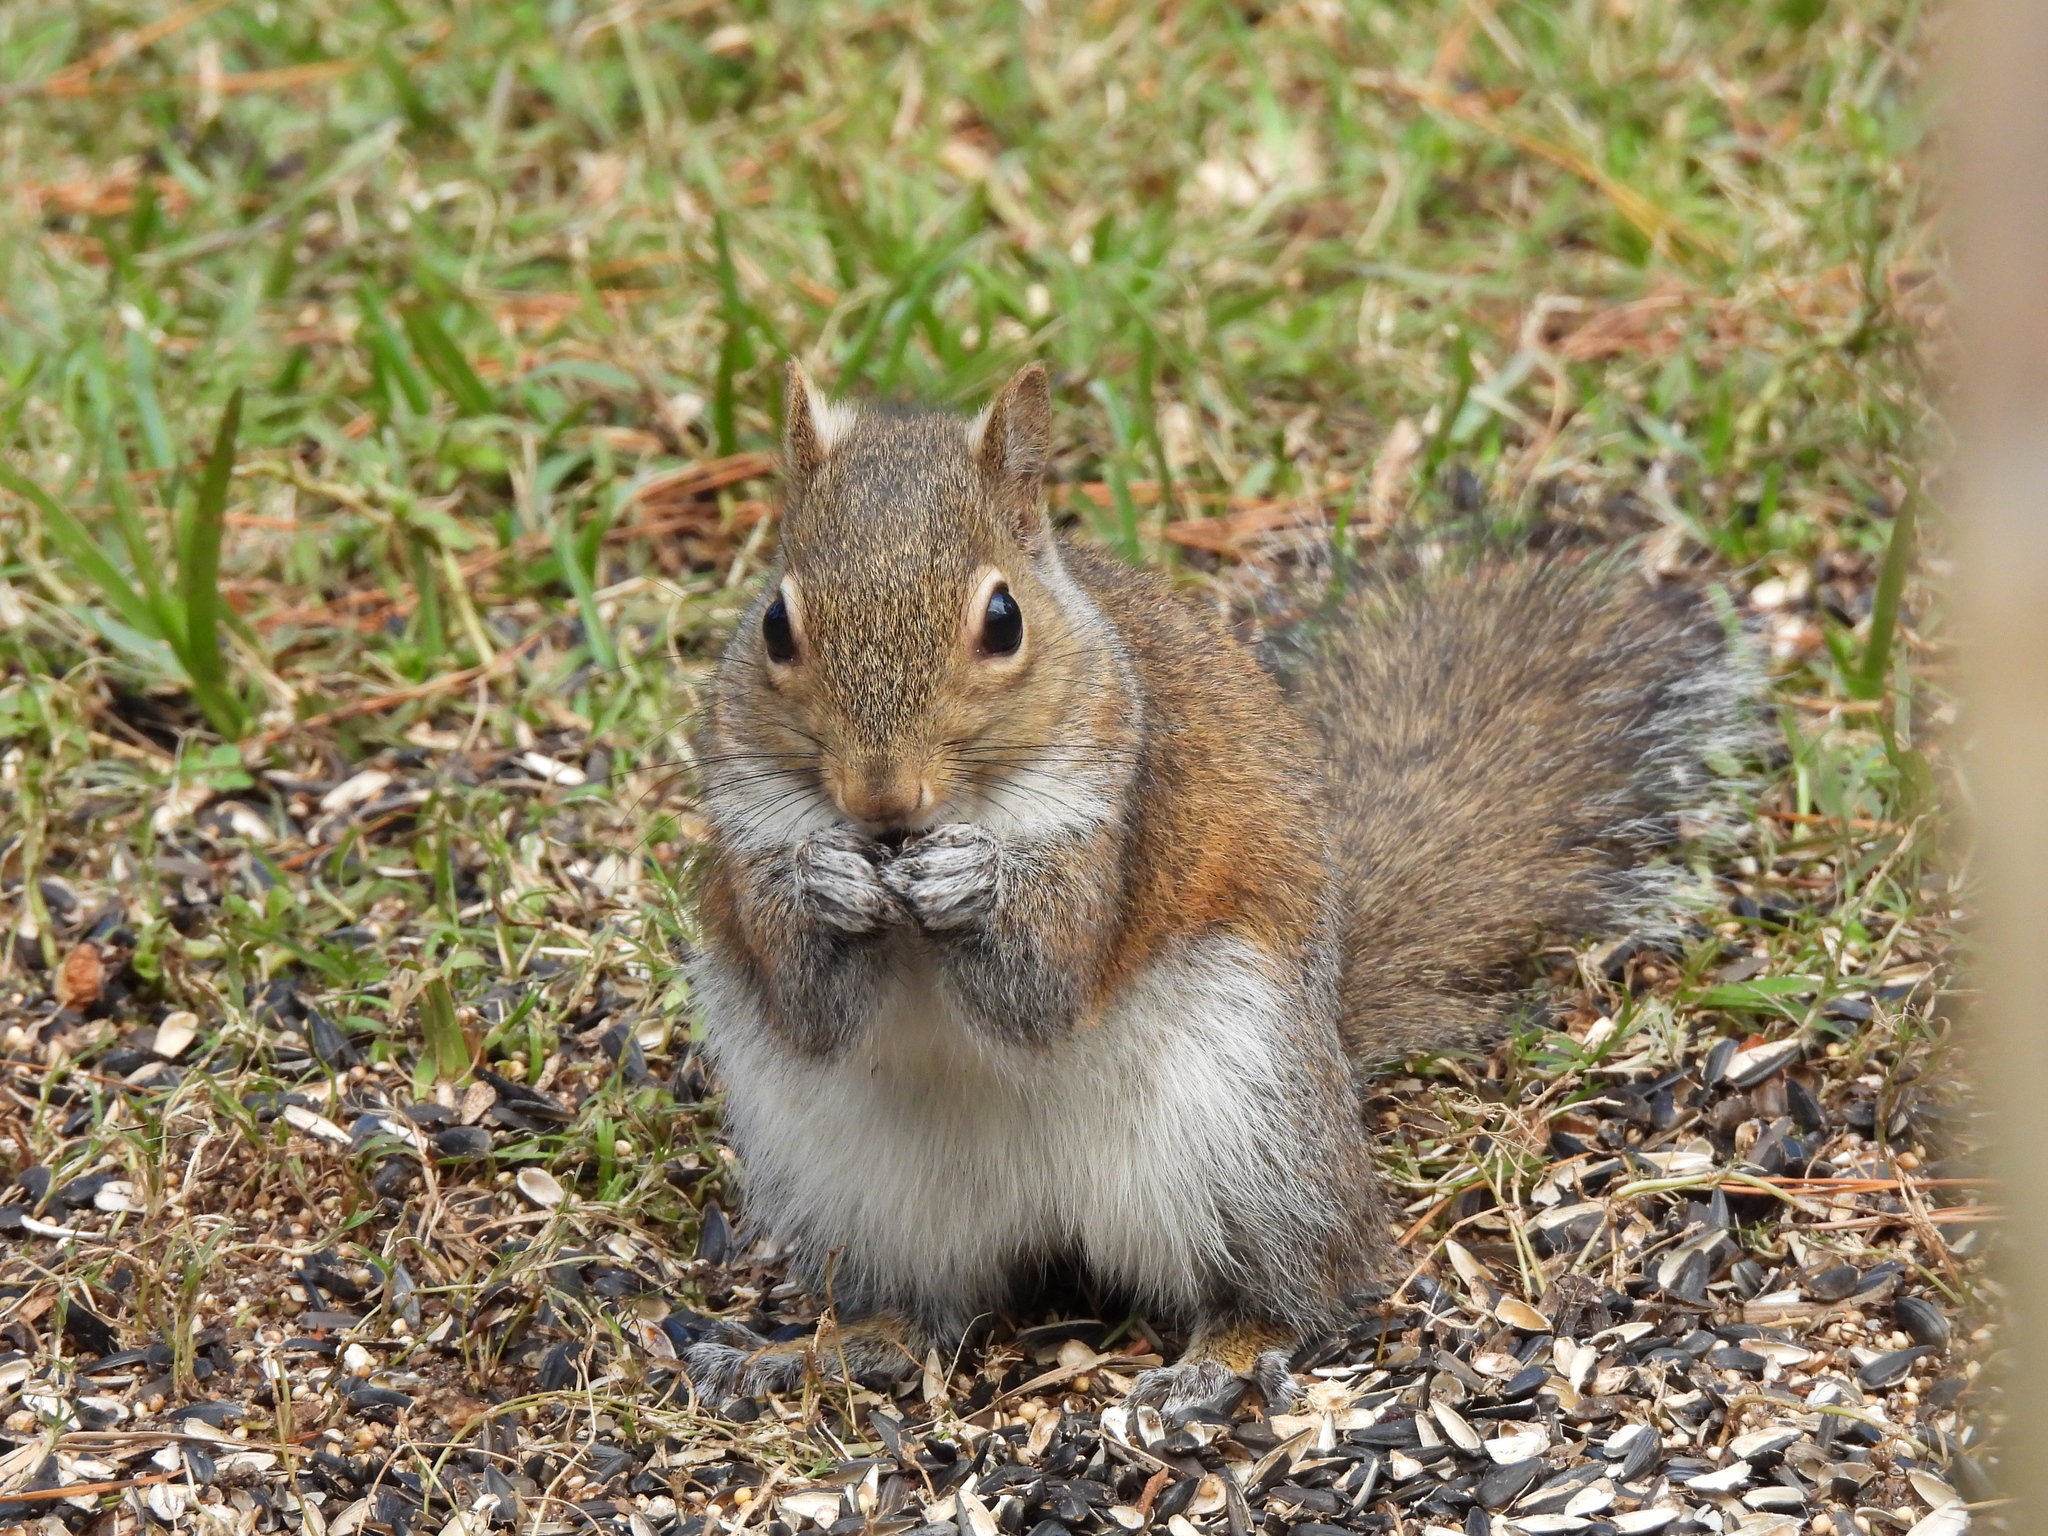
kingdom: Animalia
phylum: Chordata
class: Mammalia
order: Rodentia
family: Sciuridae
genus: Sciurus
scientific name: Sciurus carolinensis
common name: Eastern gray squirrel
